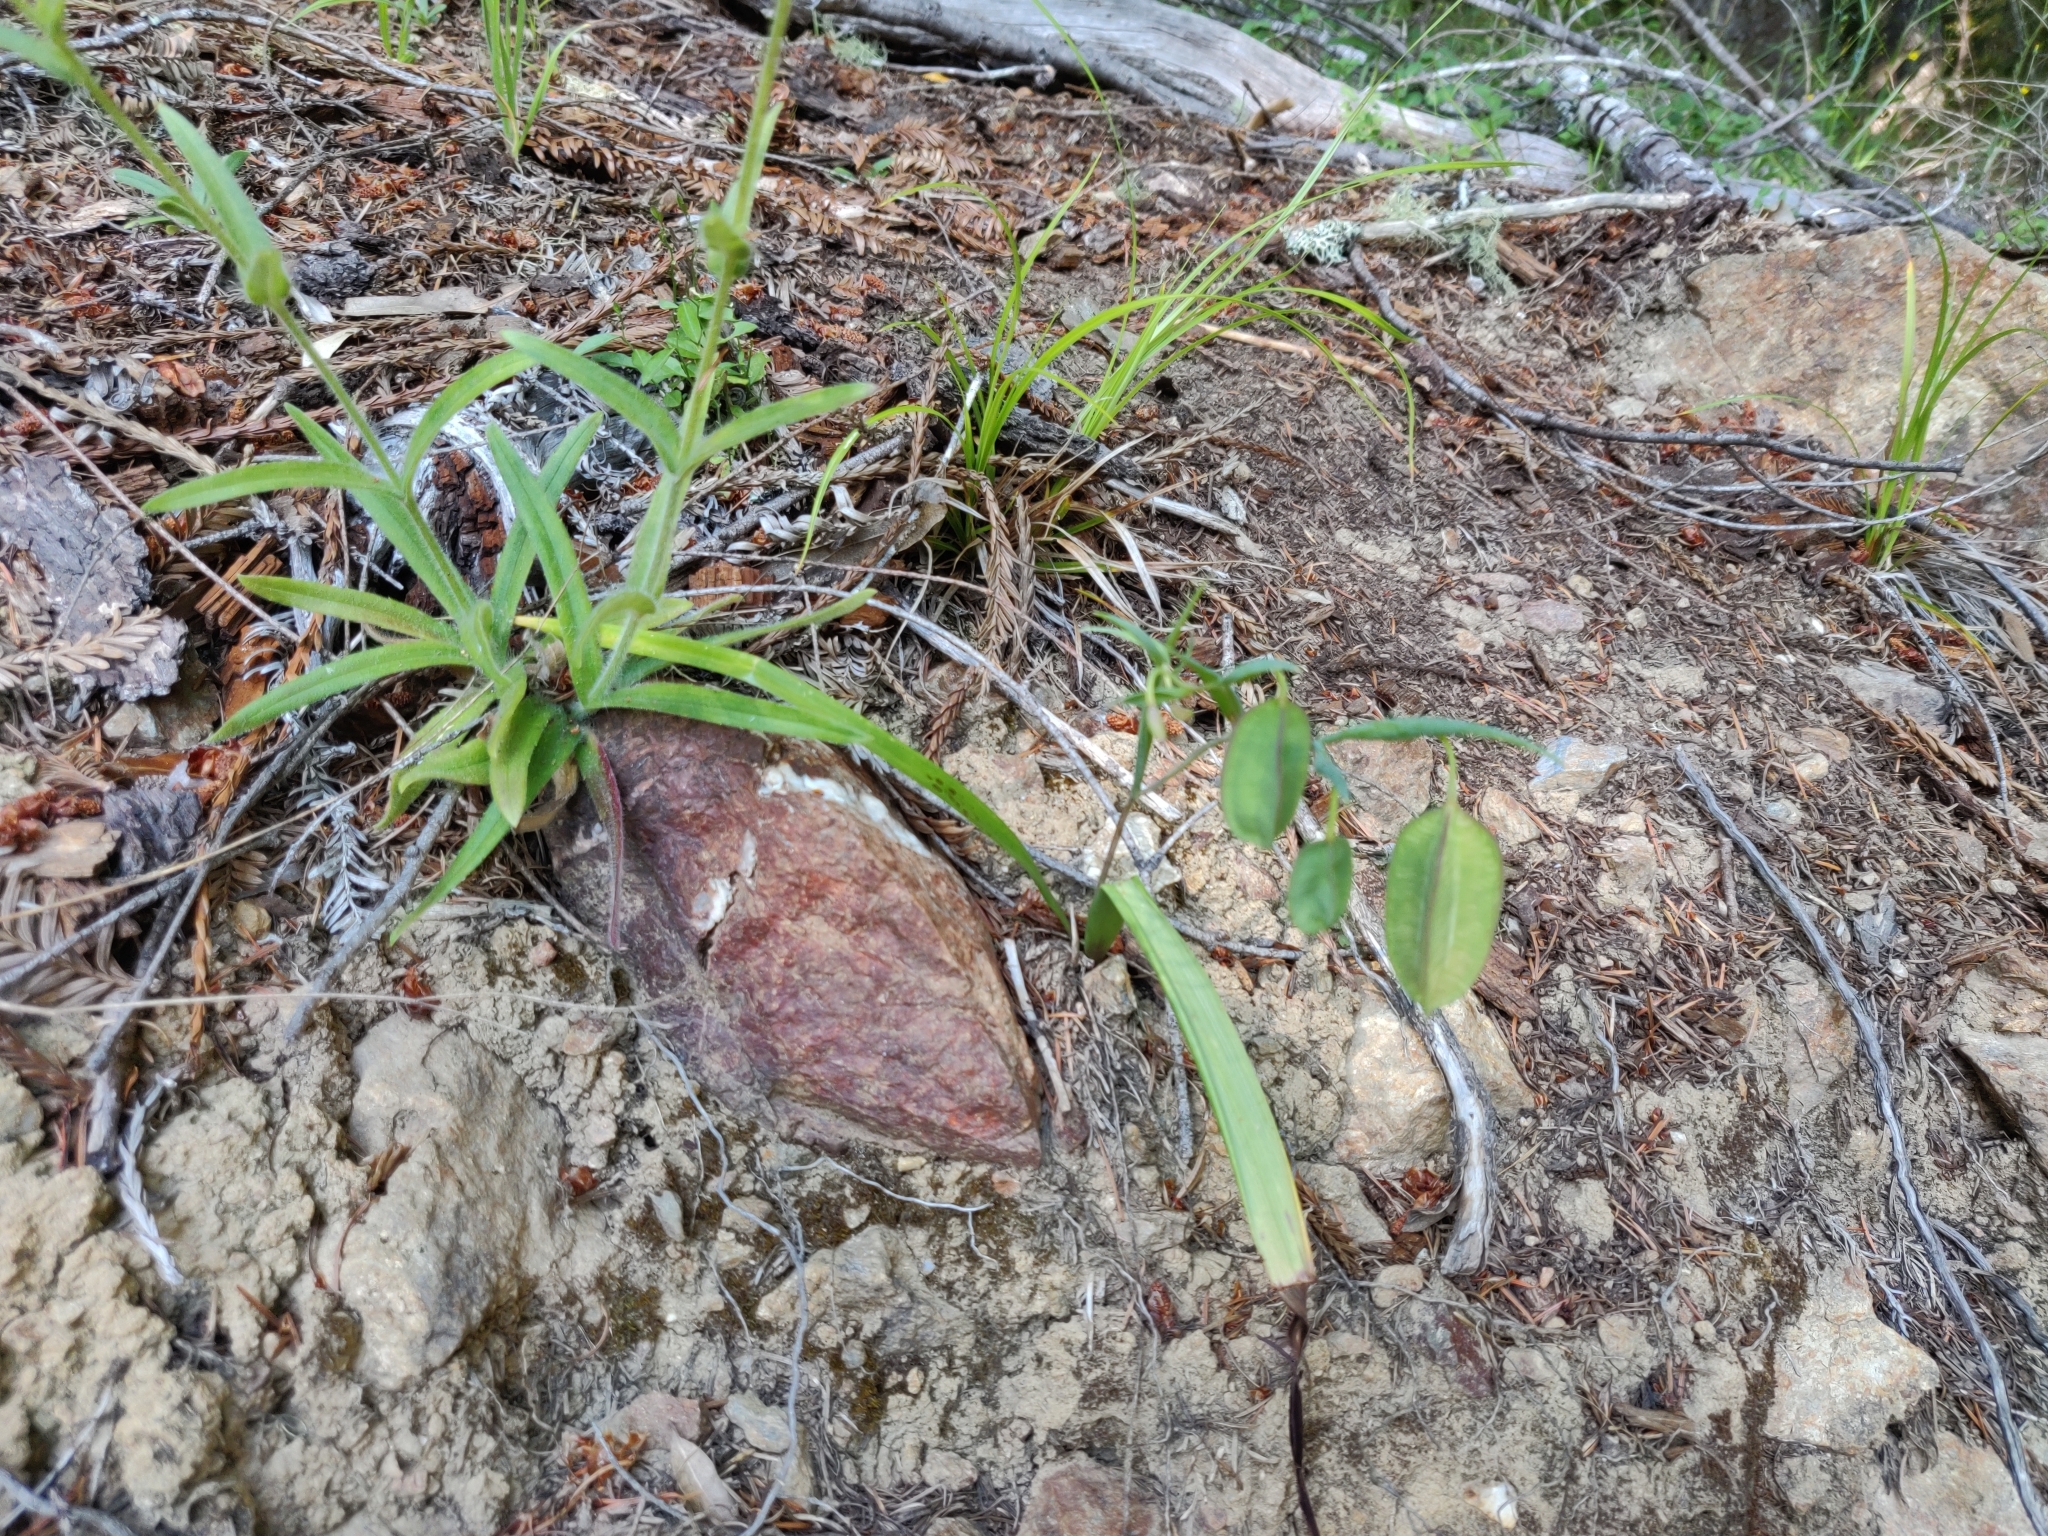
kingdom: Plantae
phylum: Tracheophyta
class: Liliopsida
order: Liliales
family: Liliaceae
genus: Calochortus
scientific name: Calochortus amabilis
